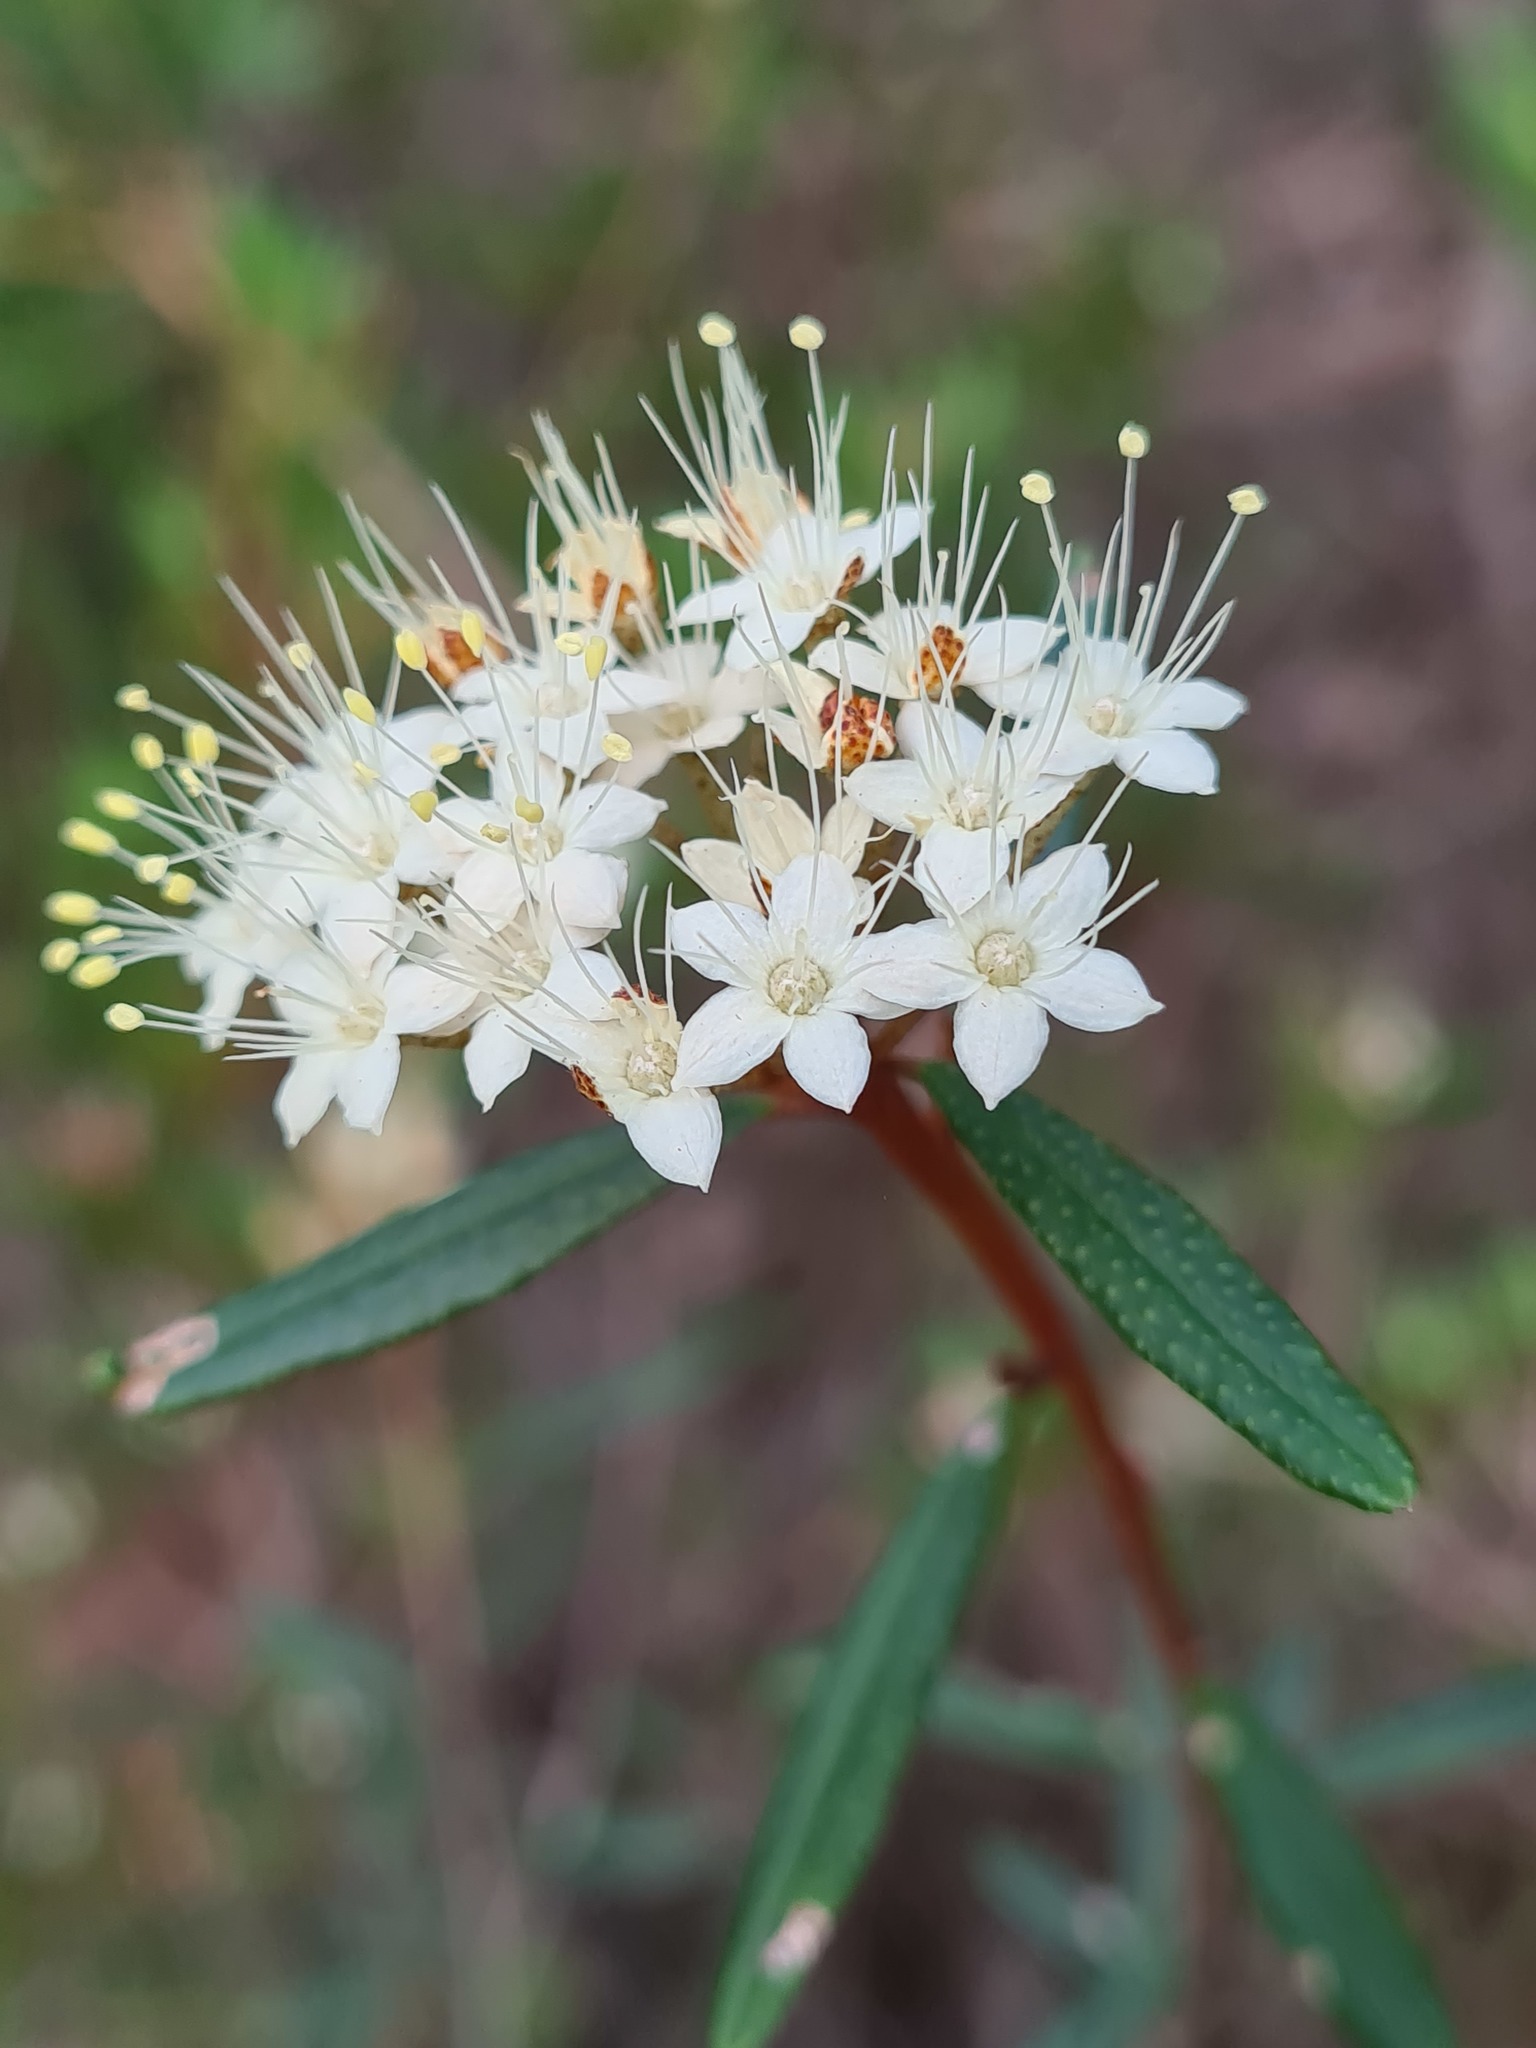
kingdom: Plantae
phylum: Tracheophyta
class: Magnoliopsida
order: Sapindales
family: Rutaceae
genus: Phebalium
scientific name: Phebalium squamulosum
